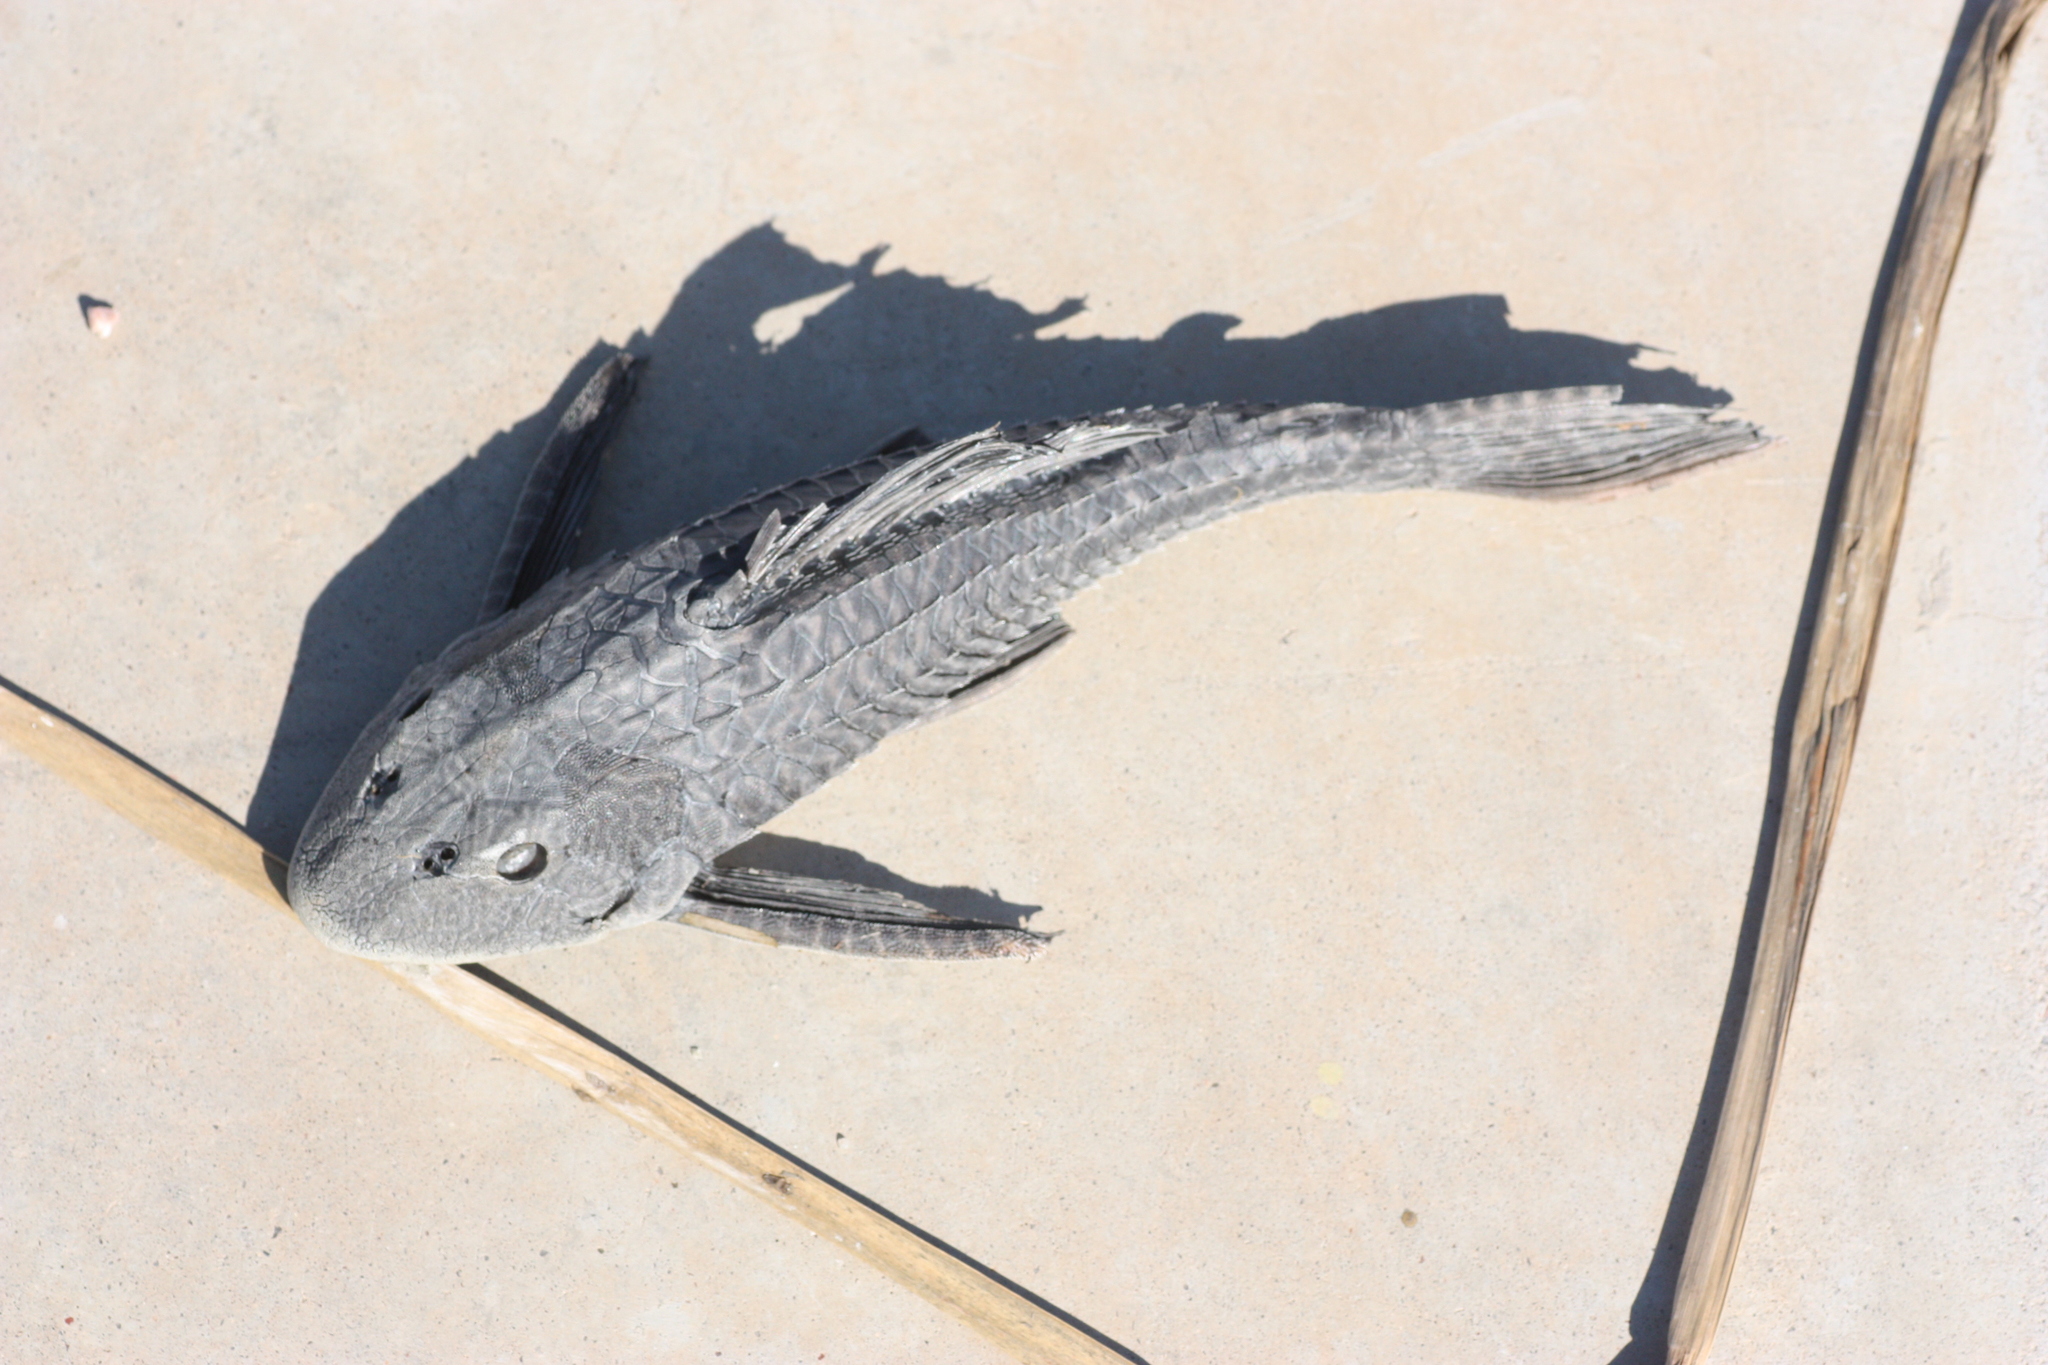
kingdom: Animalia
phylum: Chordata
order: Siluriformes
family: Loricariidae
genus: Pterygoplichthys
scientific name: Pterygoplichthys
